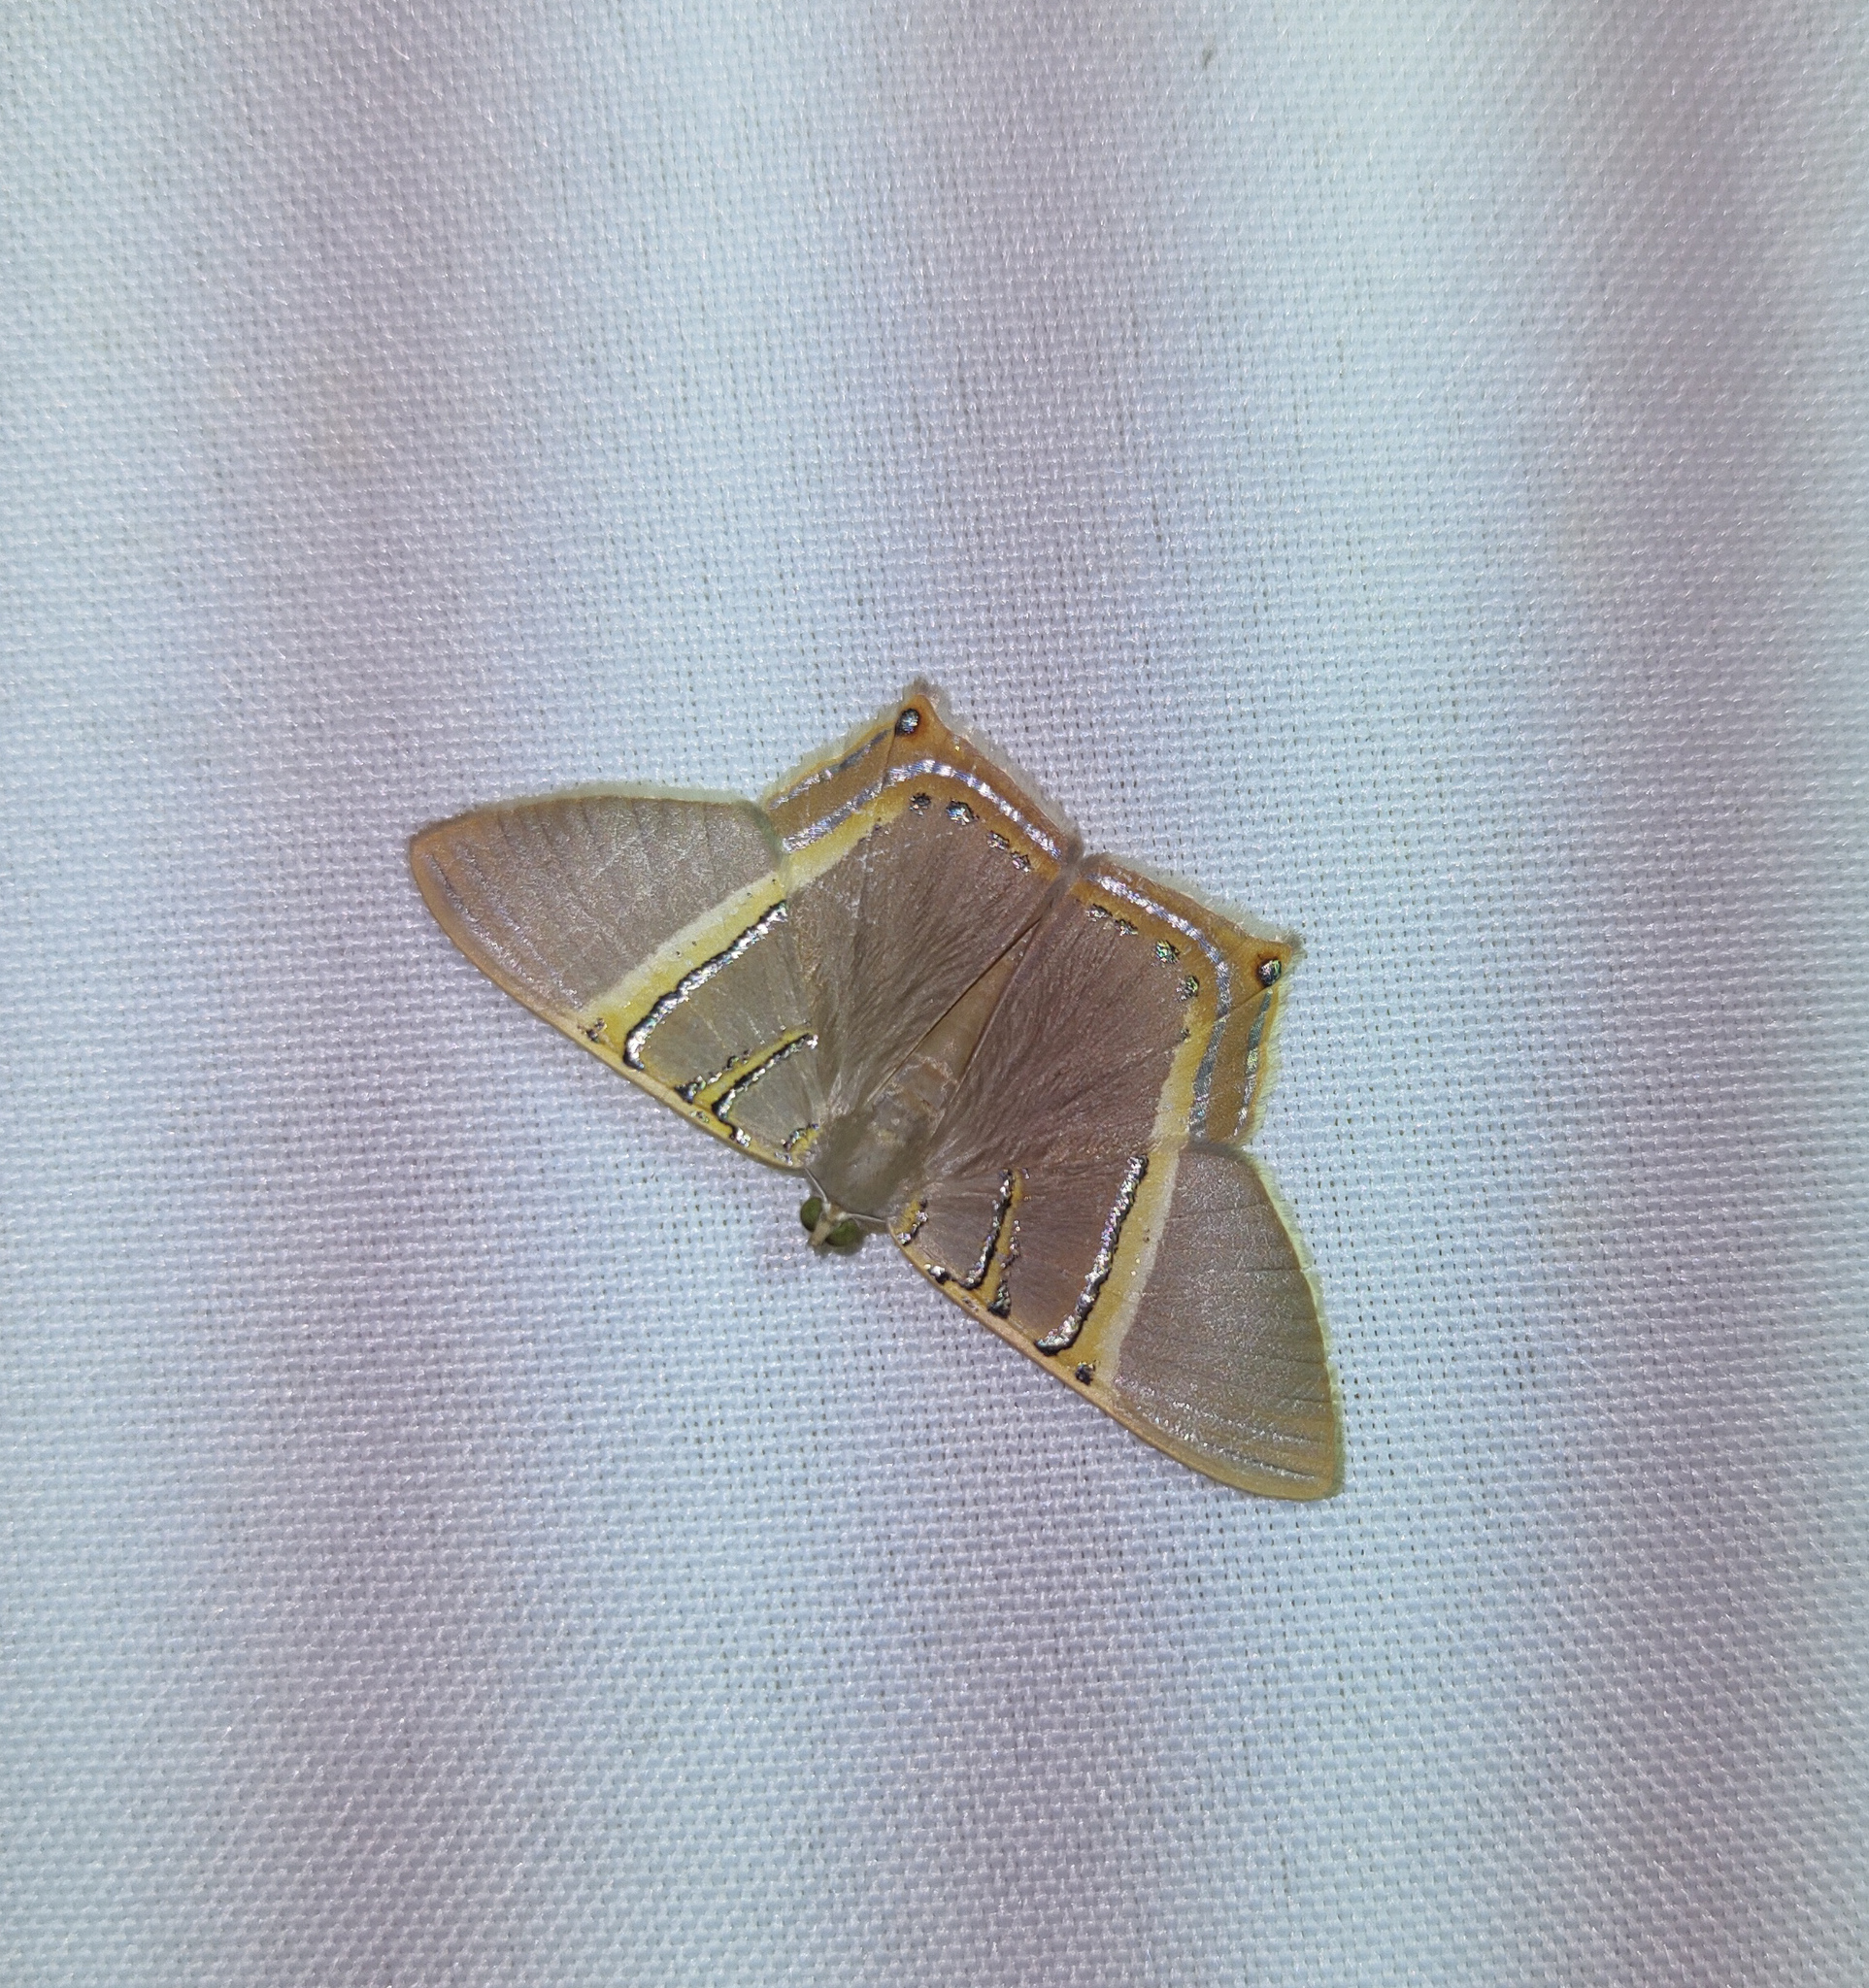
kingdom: Animalia
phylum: Arthropoda
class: Insecta
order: Lepidoptera
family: Geometridae
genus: Phrygionis
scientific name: Phrygionis polita
